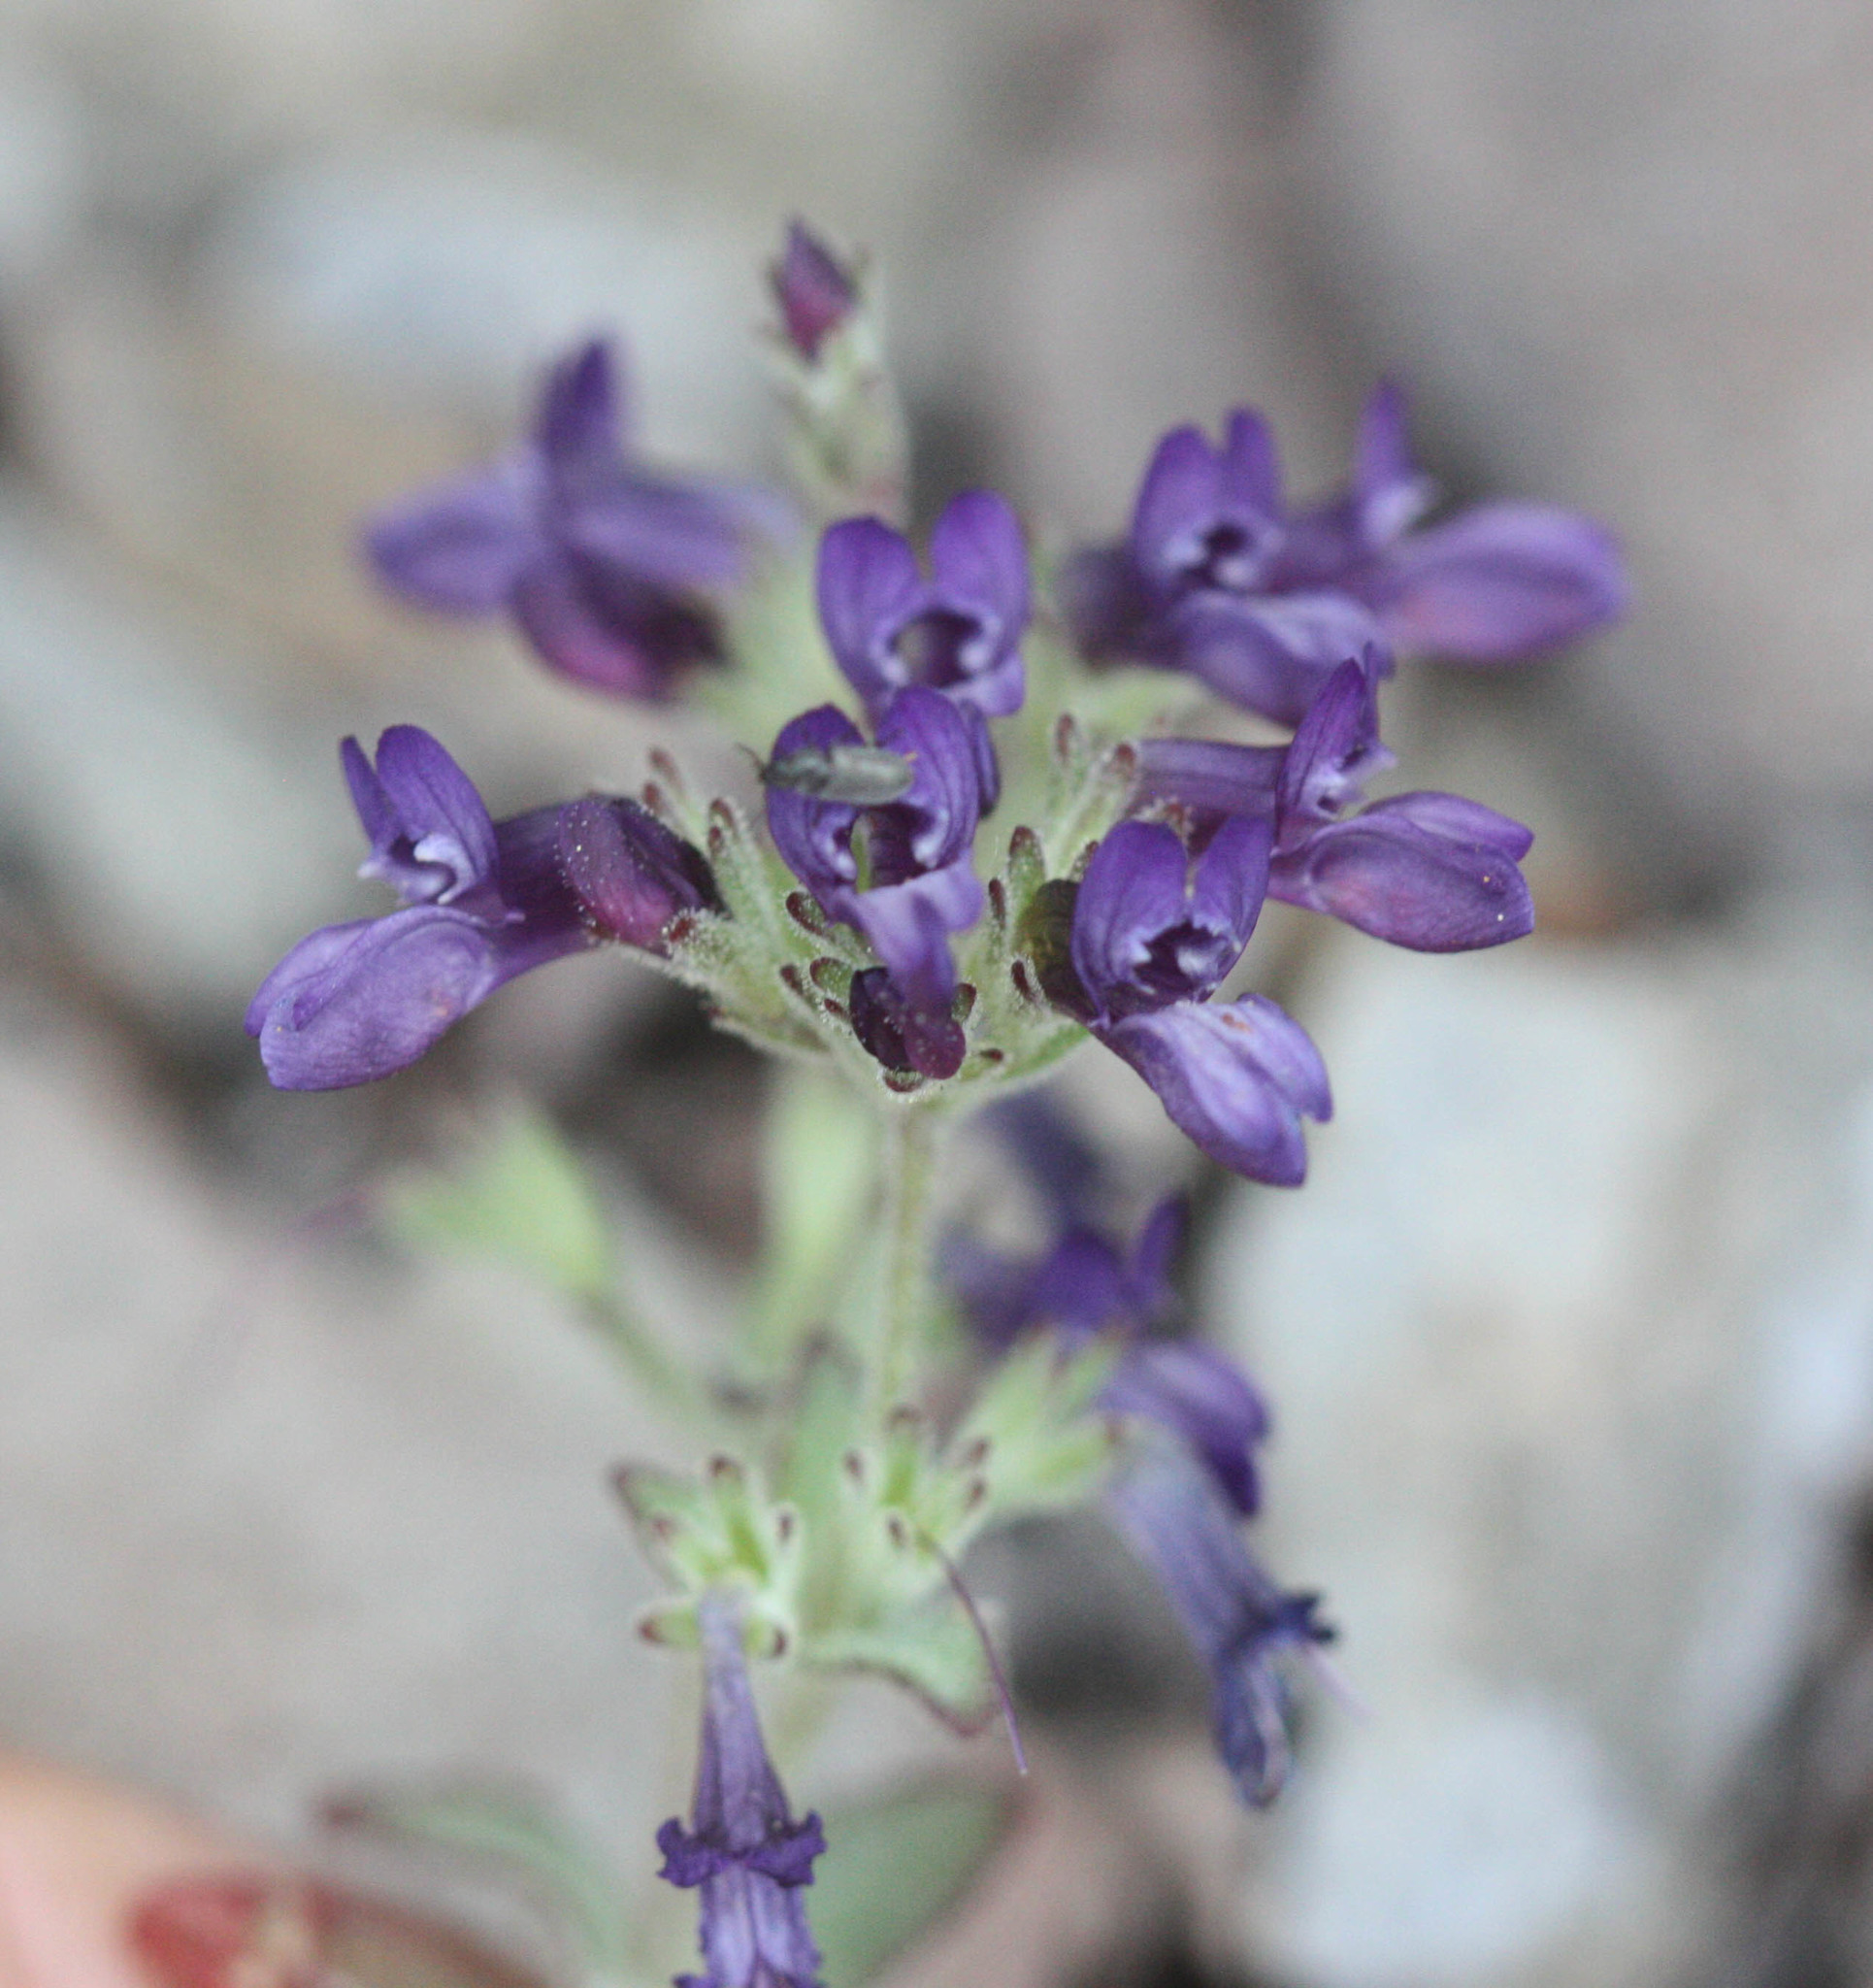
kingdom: Plantae
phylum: Tracheophyta
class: Magnoliopsida
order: Lamiales
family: Plantaginaceae
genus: Collinsia
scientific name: Collinsia greenei
